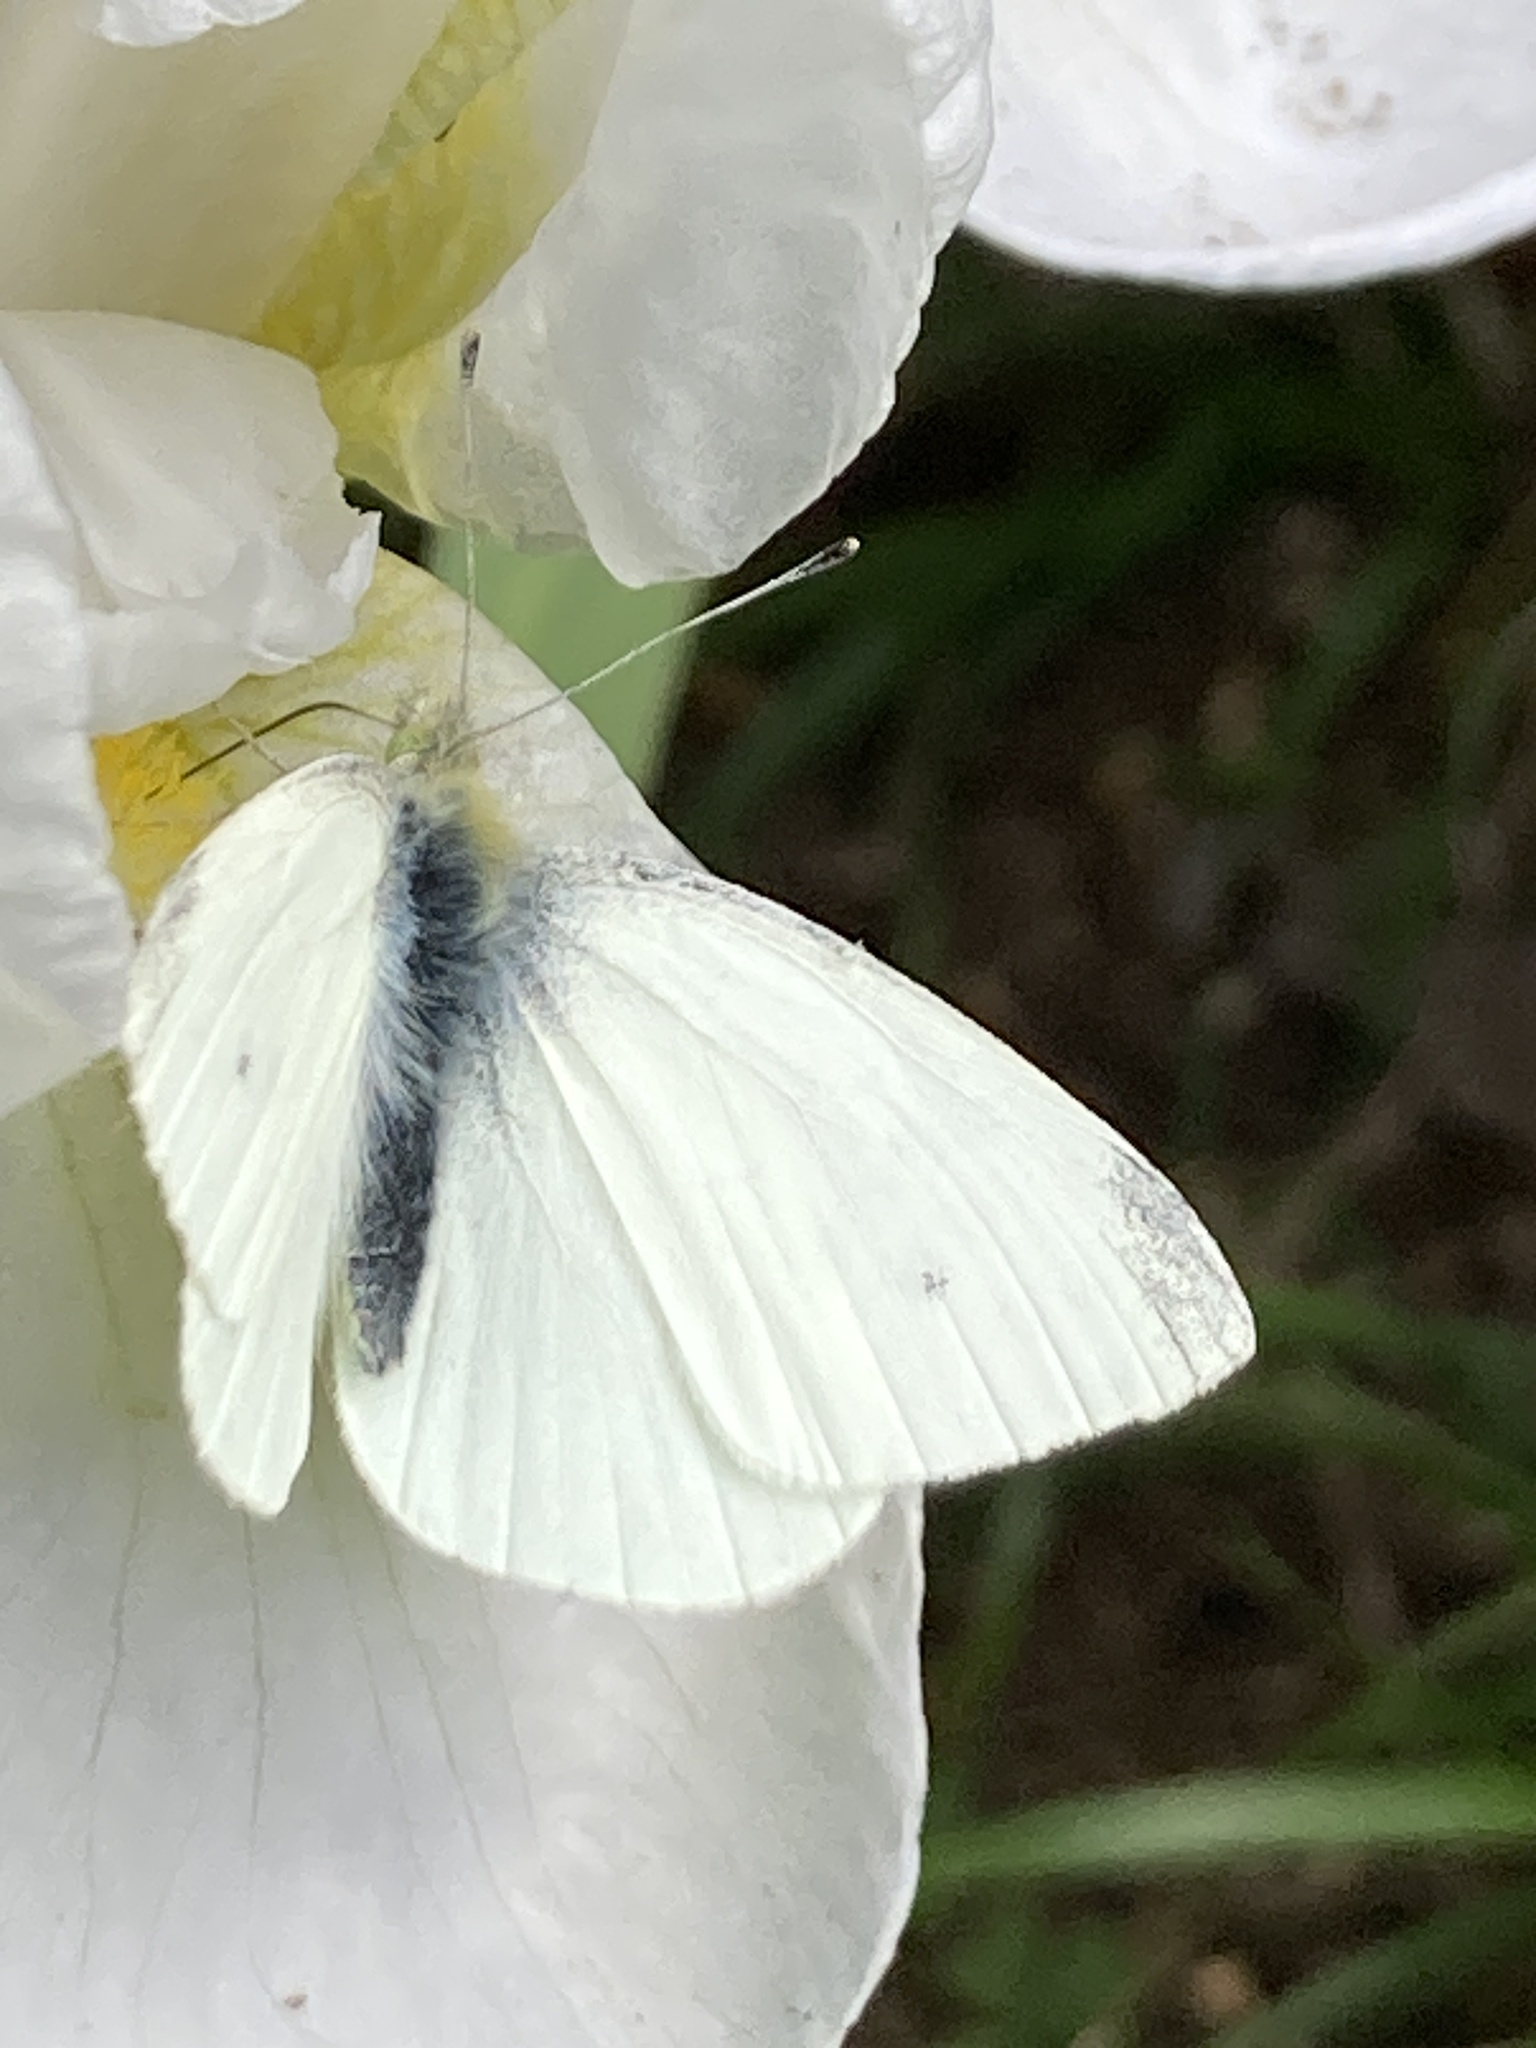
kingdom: Animalia
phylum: Arthropoda
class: Insecta
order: Lepidoptera
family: Pieridae
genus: Pieris
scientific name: Pieris rapae
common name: Small white
